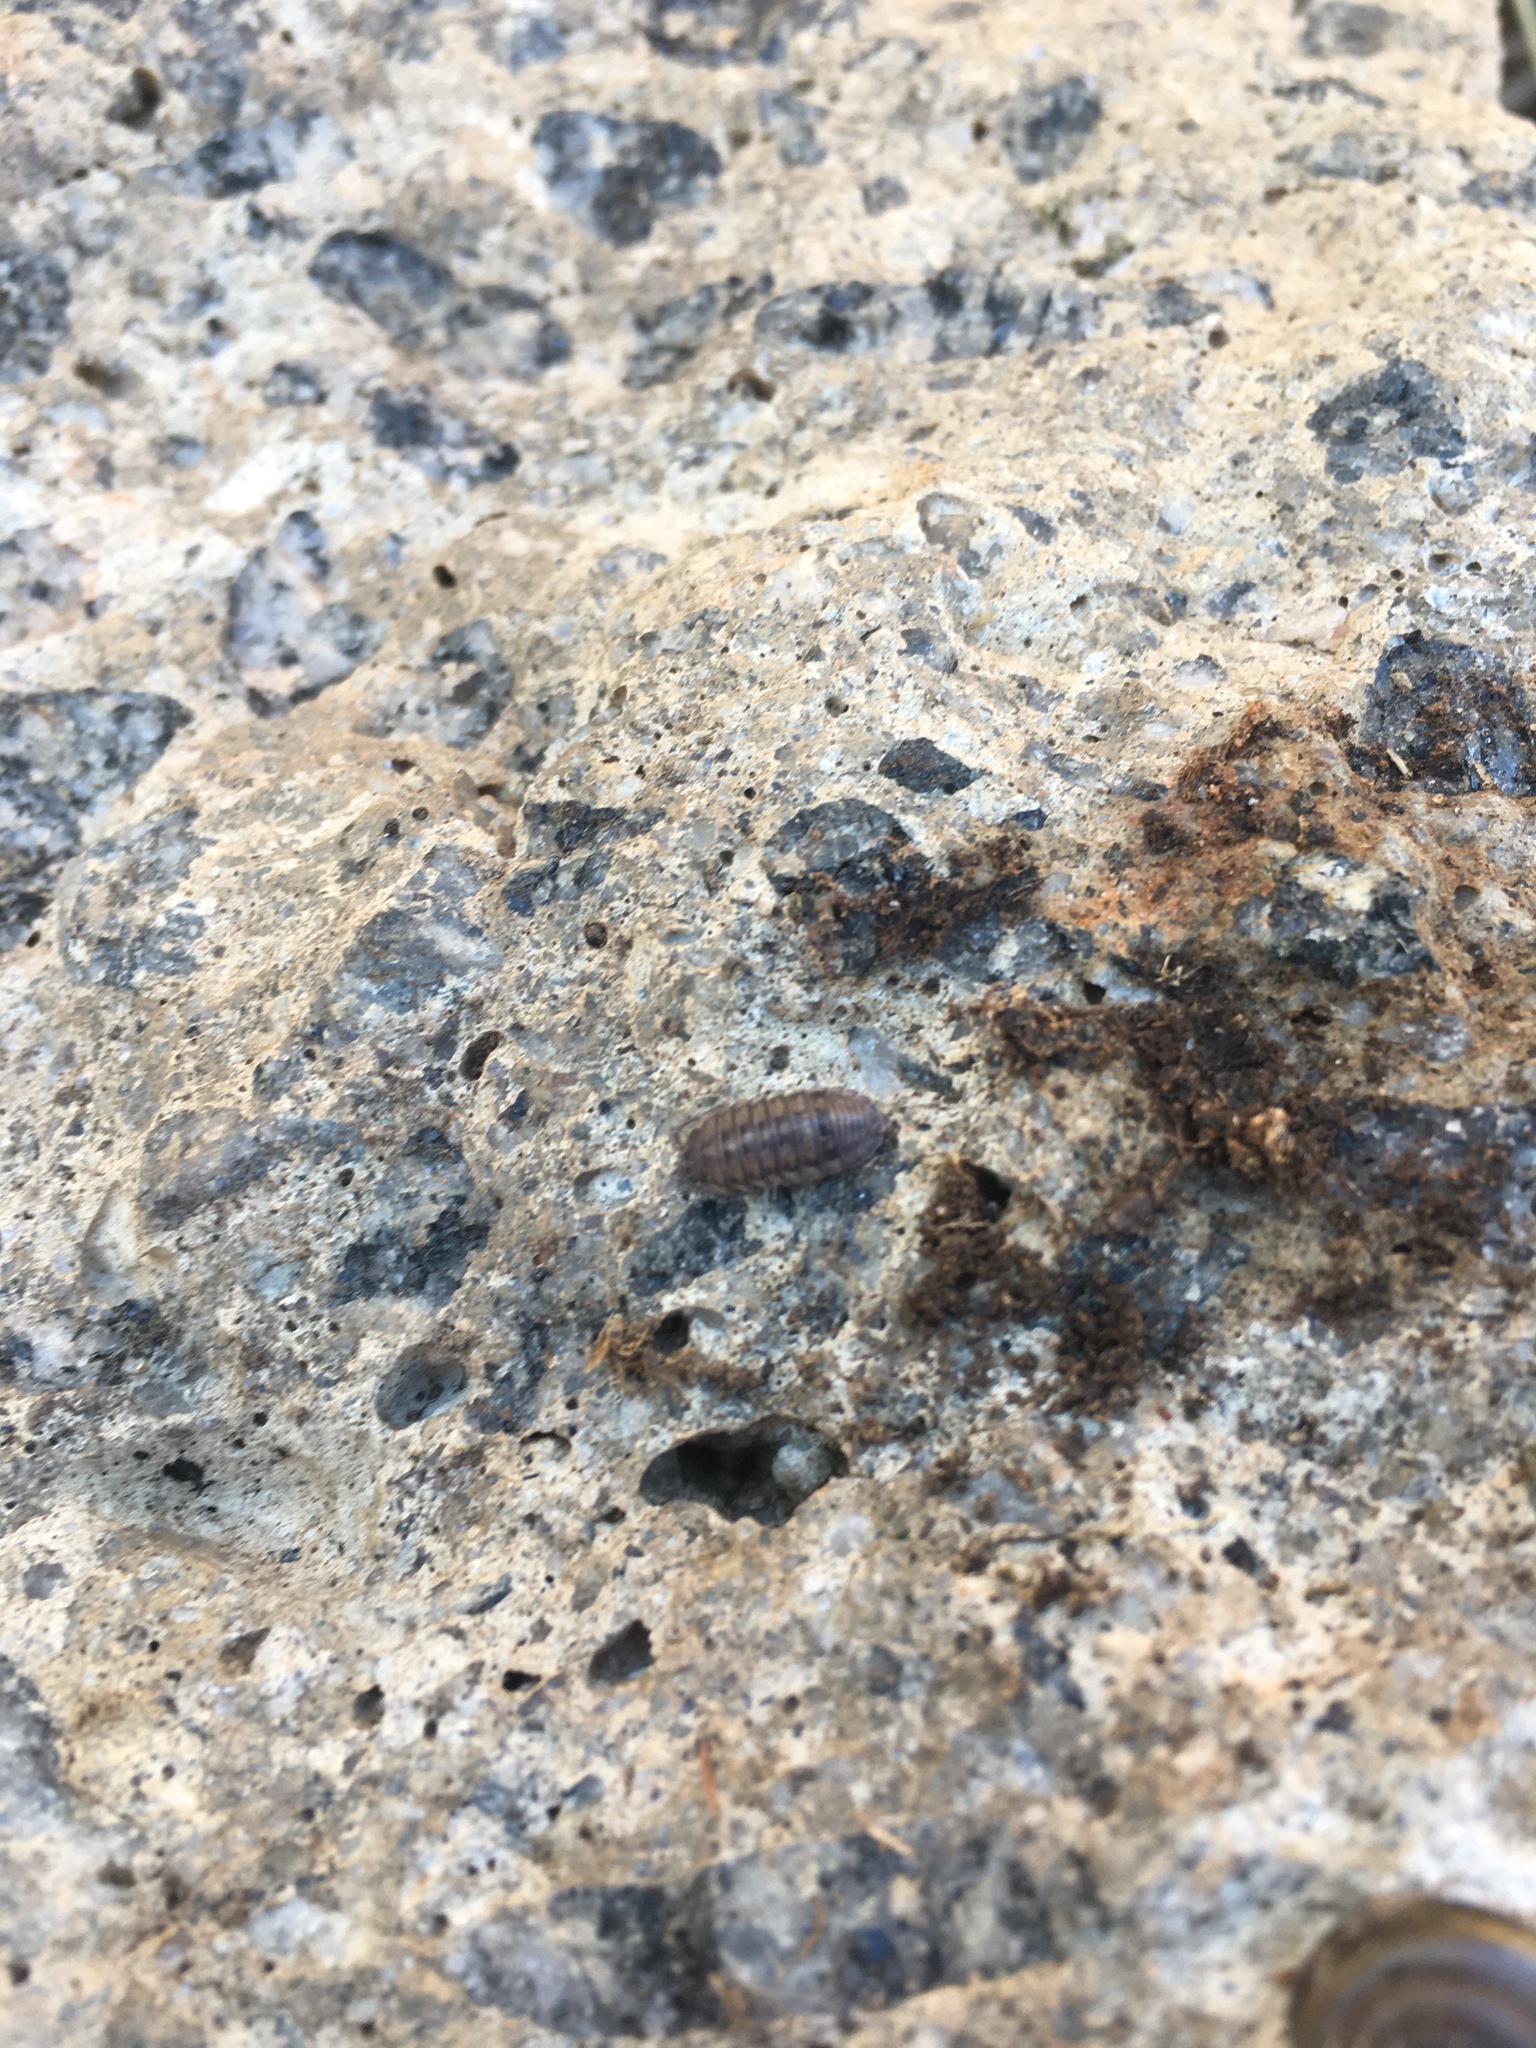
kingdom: Animalia
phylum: Arthropoda
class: Malacostraca
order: Isopoda
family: Armadillidiidae
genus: Armadillidium
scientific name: Armadillidium nasatum
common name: Isopod
